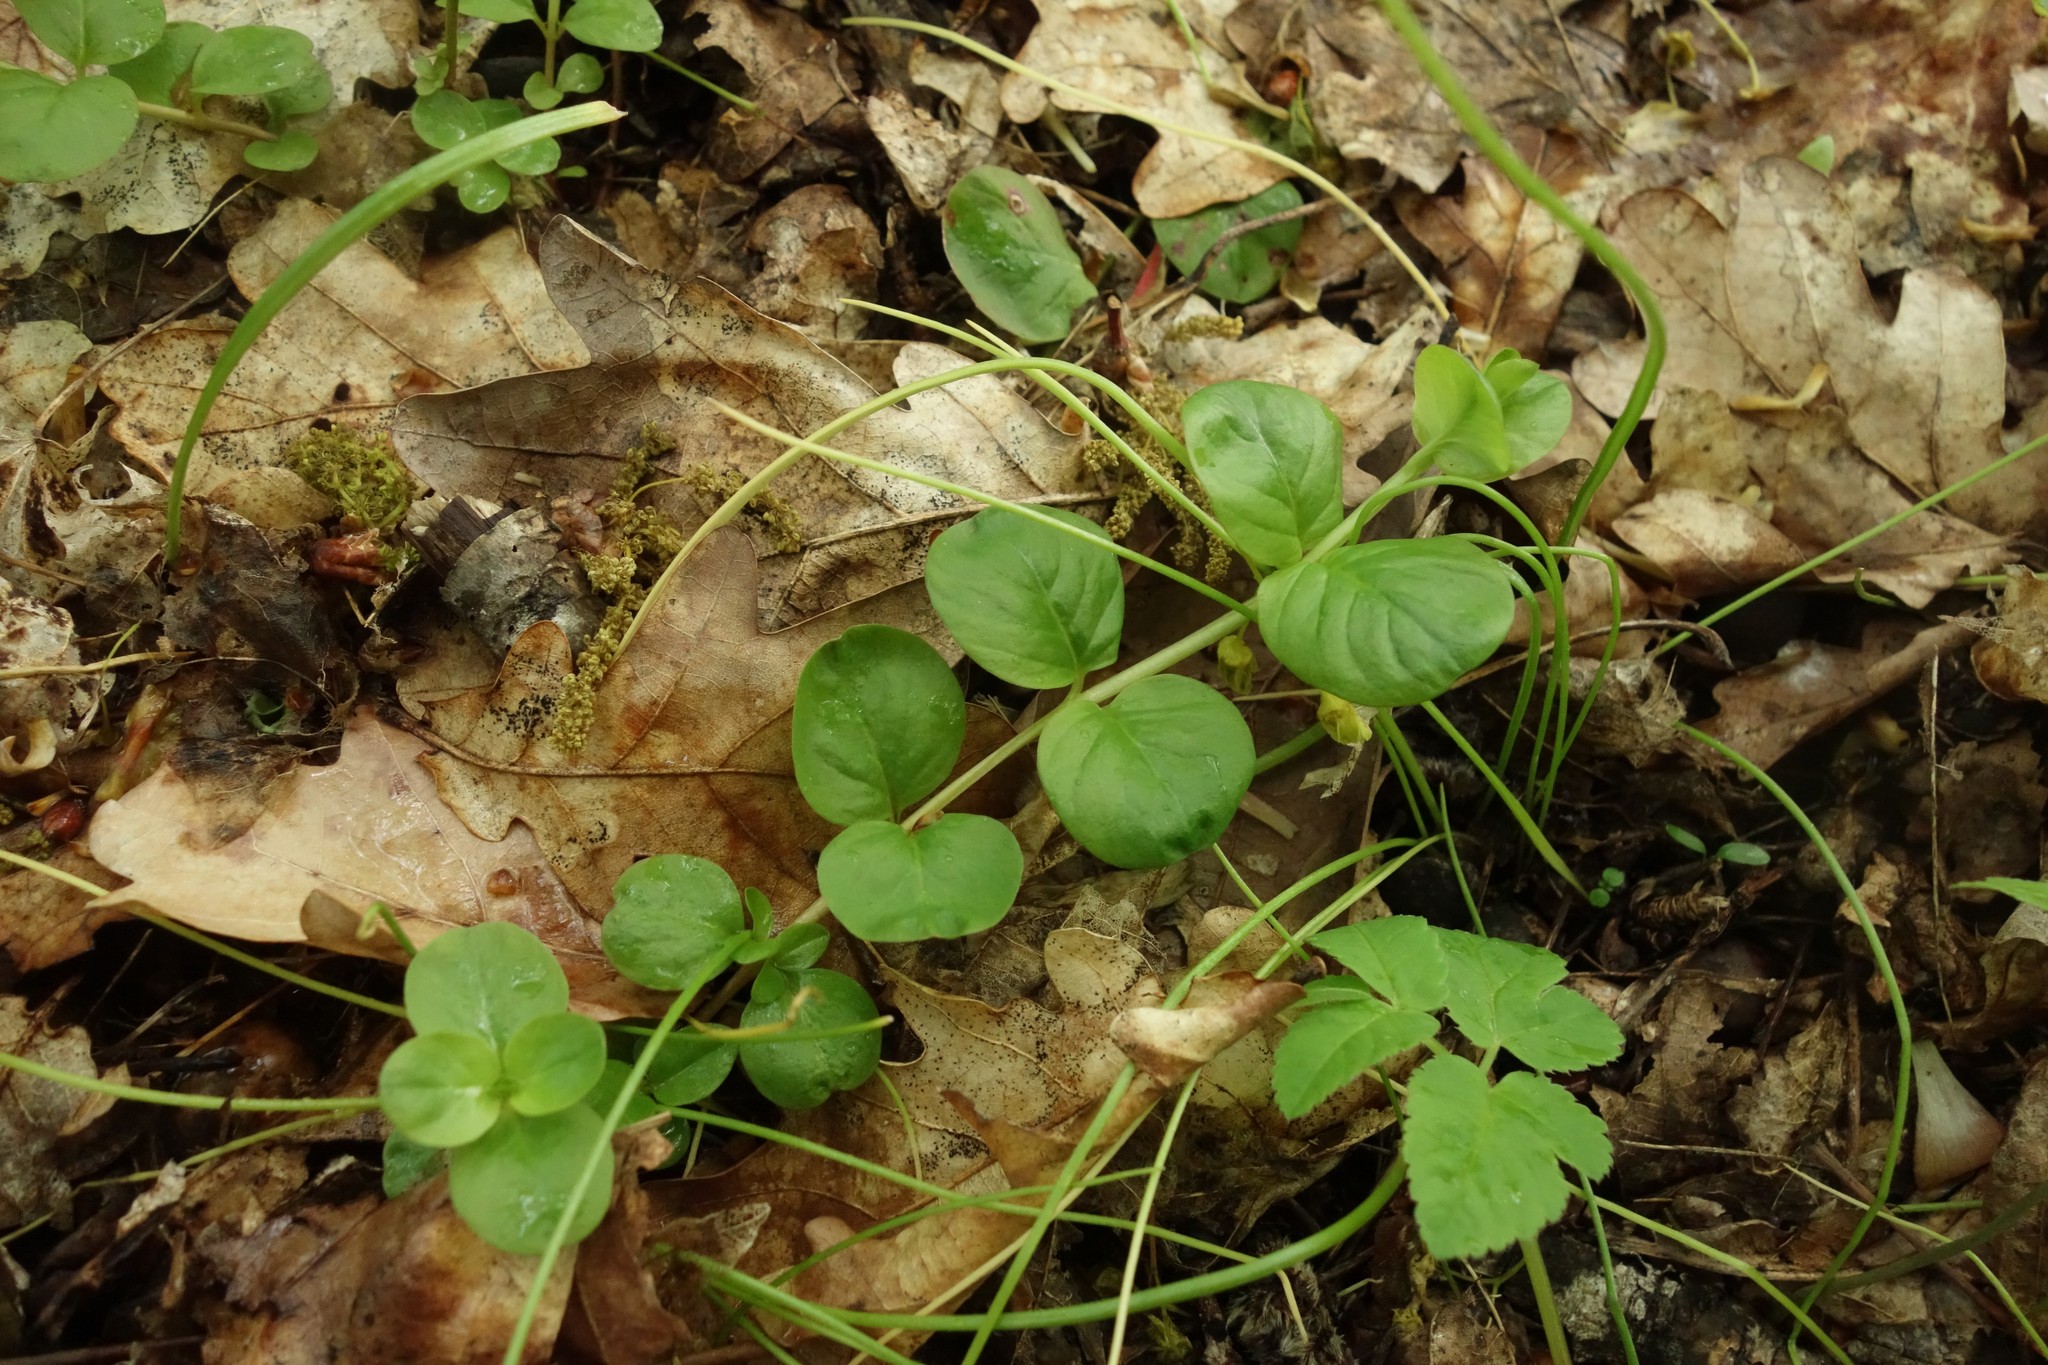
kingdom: Plantae
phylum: Tracheophyta
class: Magnoliopsida
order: Ericales
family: Primulaceae
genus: Lysimachia
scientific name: Lysimachia nummularia
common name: Moneywort
